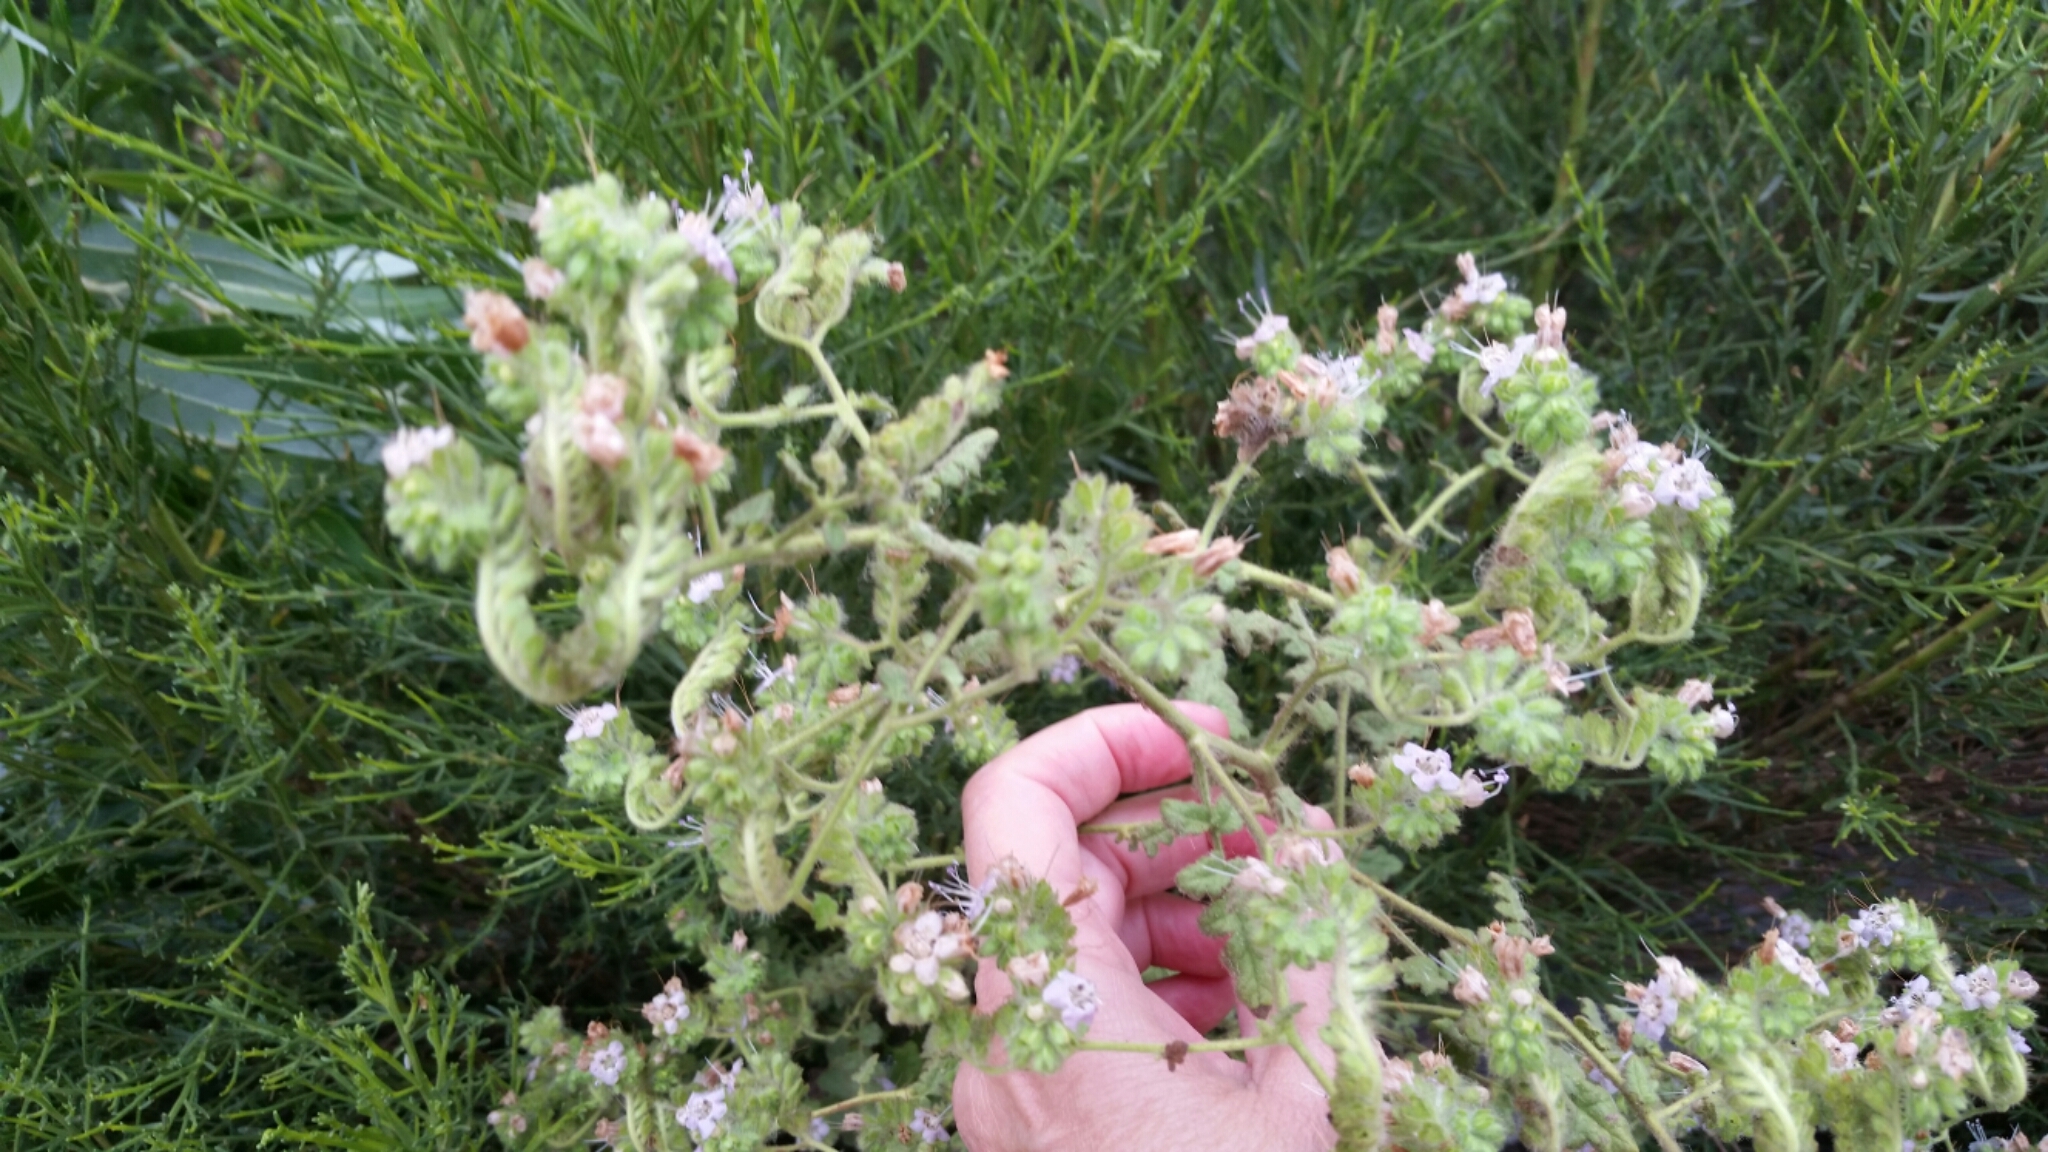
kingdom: Plantae
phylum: Tracheophyta
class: Magnoliopsida
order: Boraginales
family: Hydrophyllaceae
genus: Phacelia
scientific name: Phacelia suffrutescens
